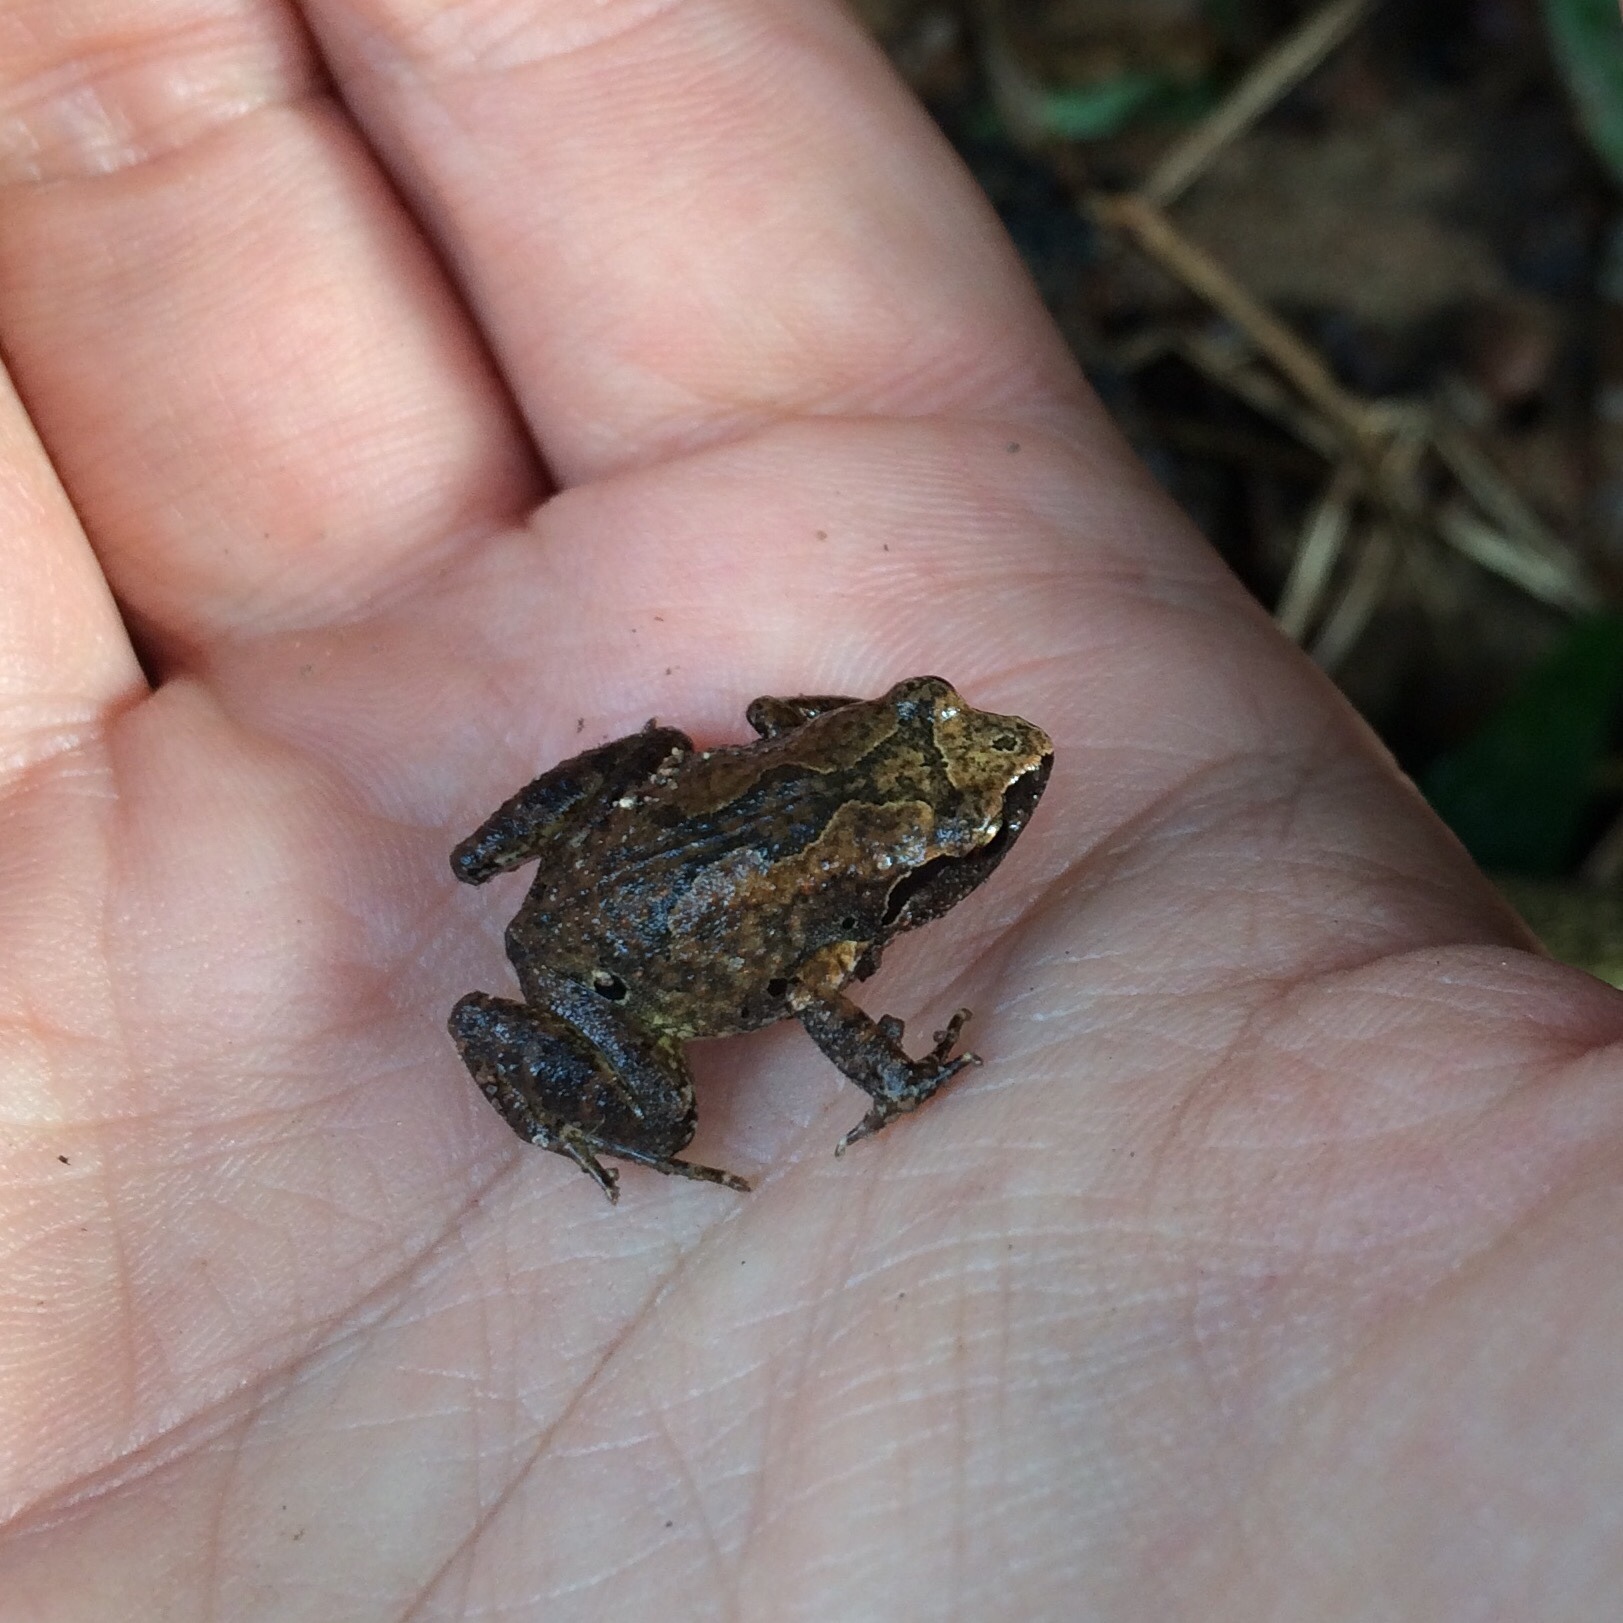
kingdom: Animalia
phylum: Chordata
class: Amphibia
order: Anura
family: Arthroleptidae
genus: Arthroleptis
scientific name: Arthroleptis wahlbergii
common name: Bush squeaker
